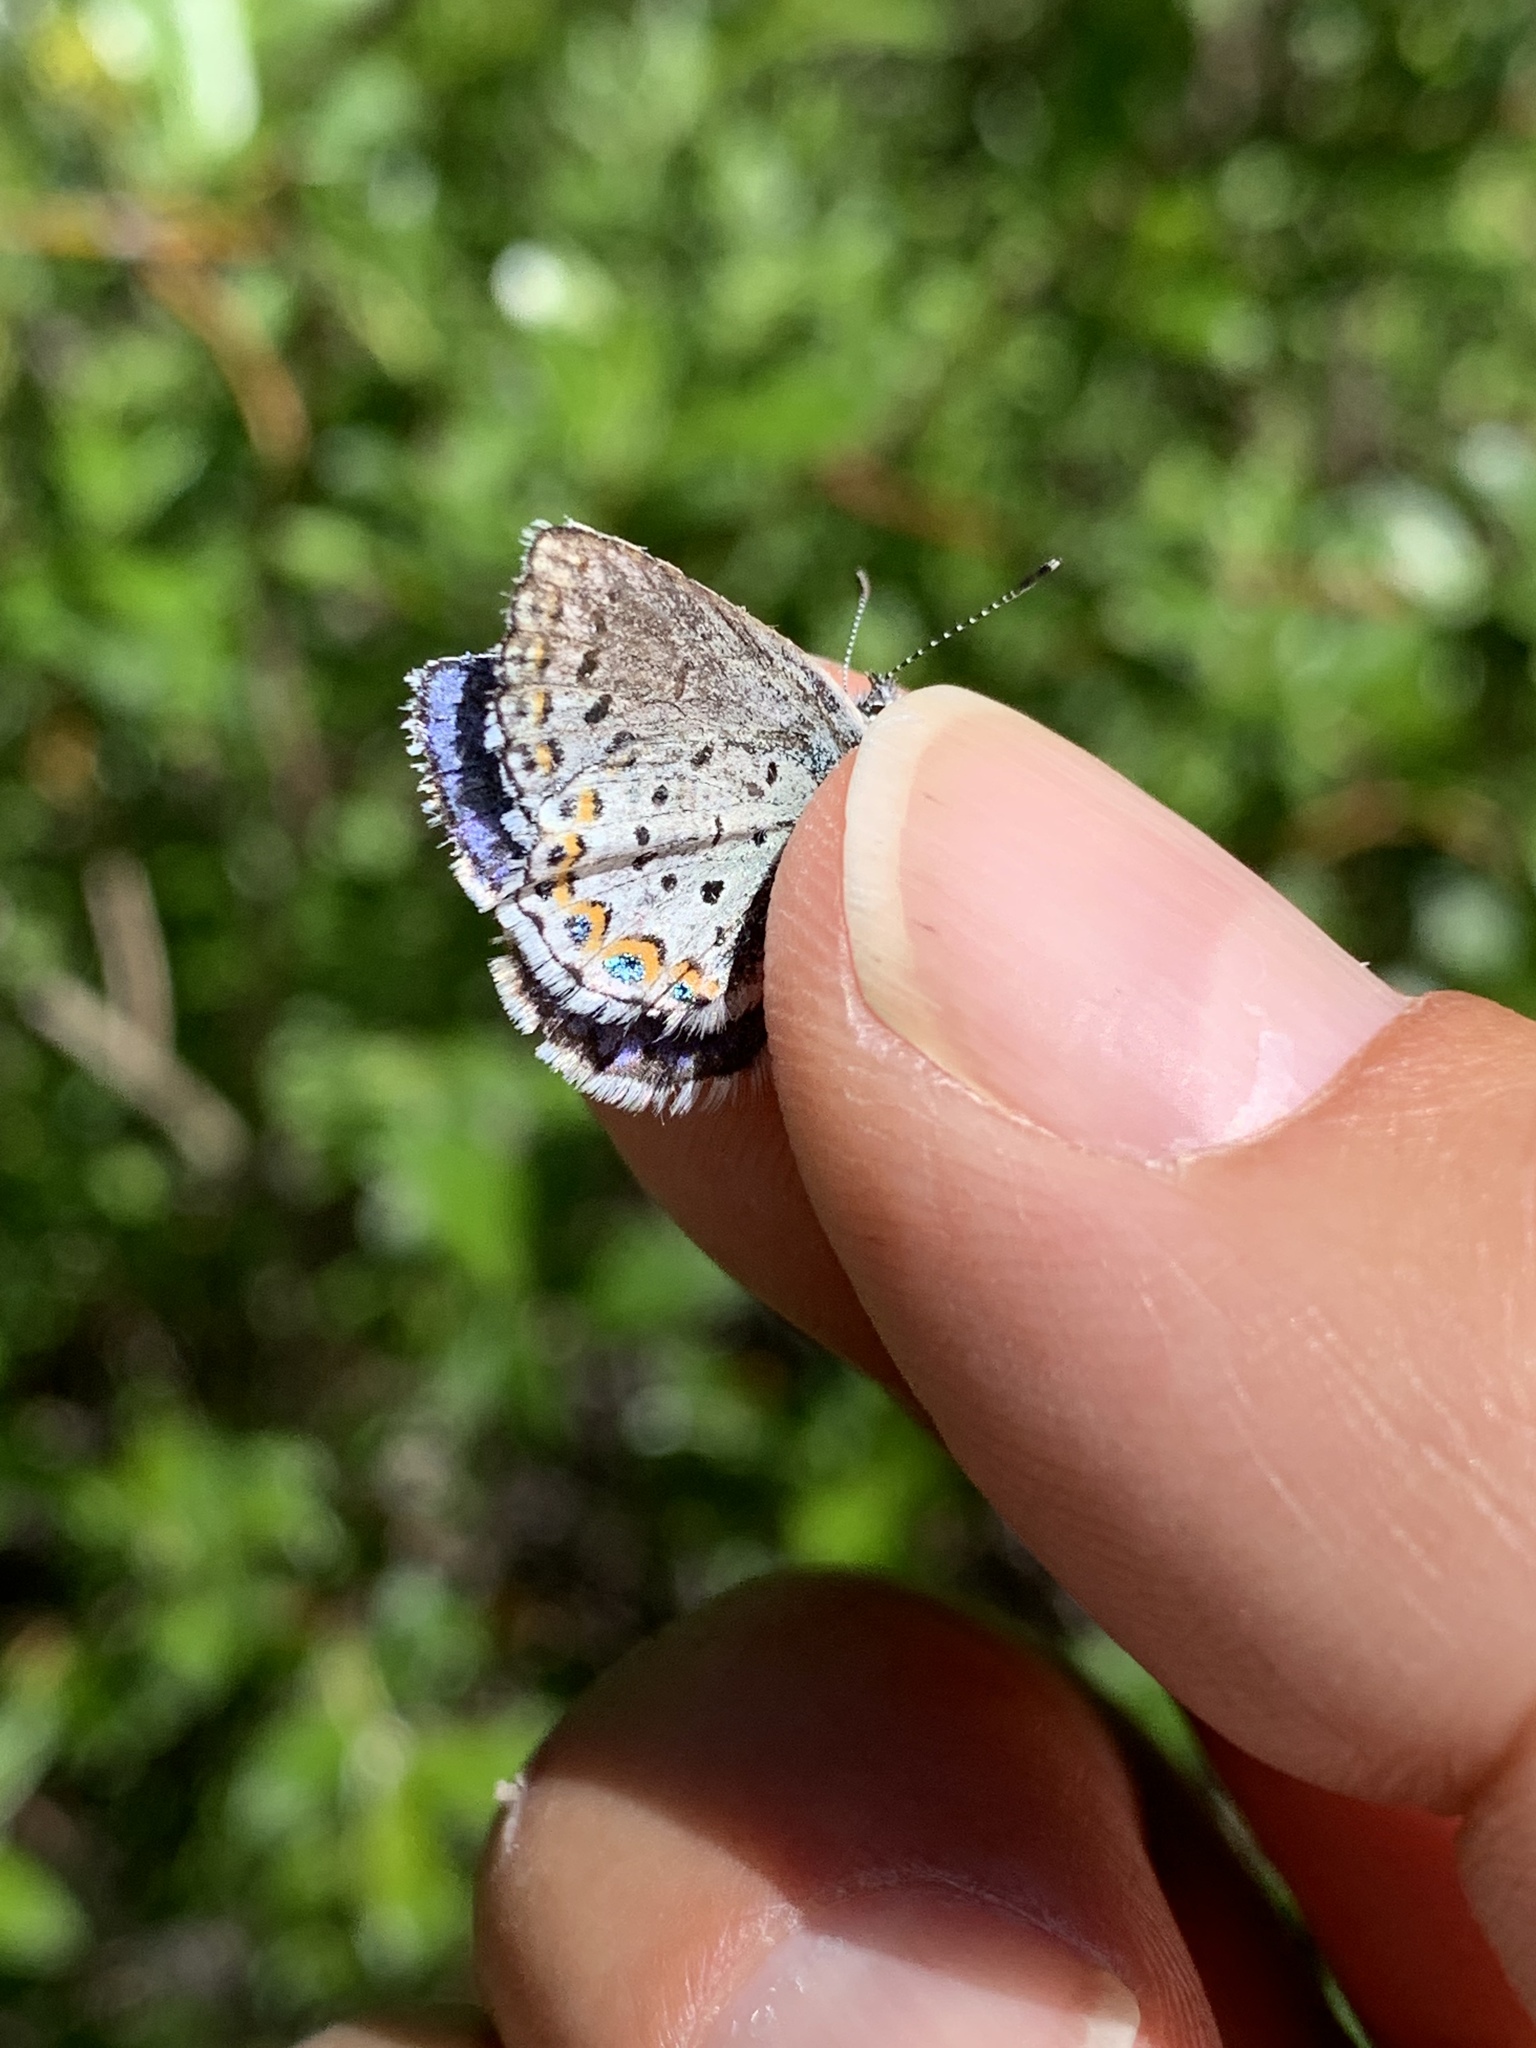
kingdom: Animalia
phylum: Arthropoda
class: Insecta
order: Lepidoptera
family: Lycaenidae
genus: Lycaeides
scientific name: Lycaeides idas
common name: Northern blue
